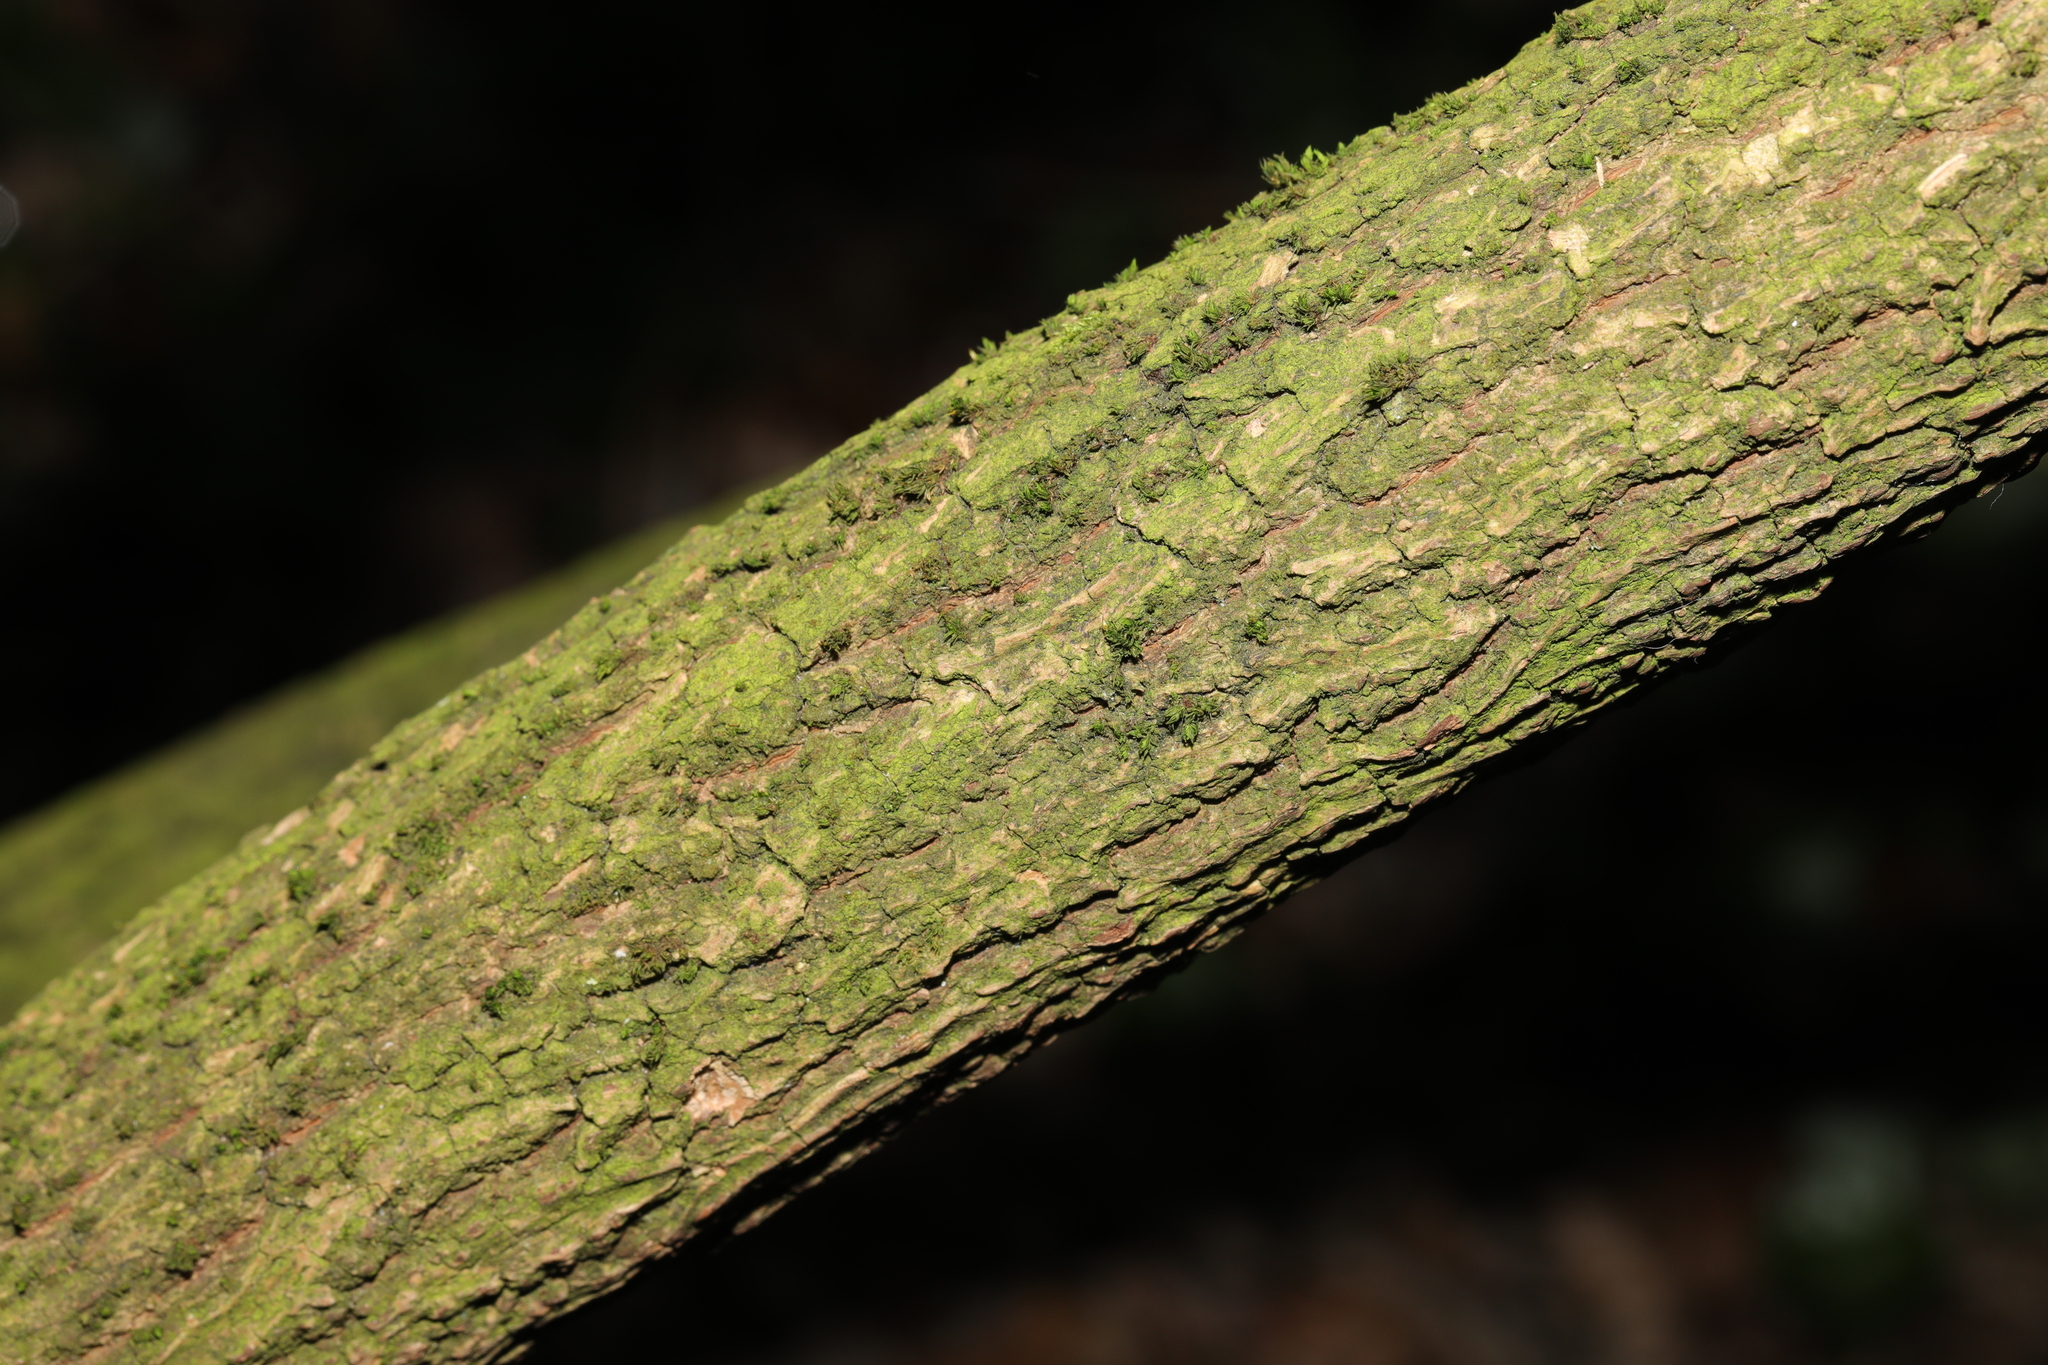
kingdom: Plantae
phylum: Tracheophyta
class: Magnoliopsida
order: Dipsacales
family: Viburnaceae
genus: Sambucus
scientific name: Sambucus nigra
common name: Elder
